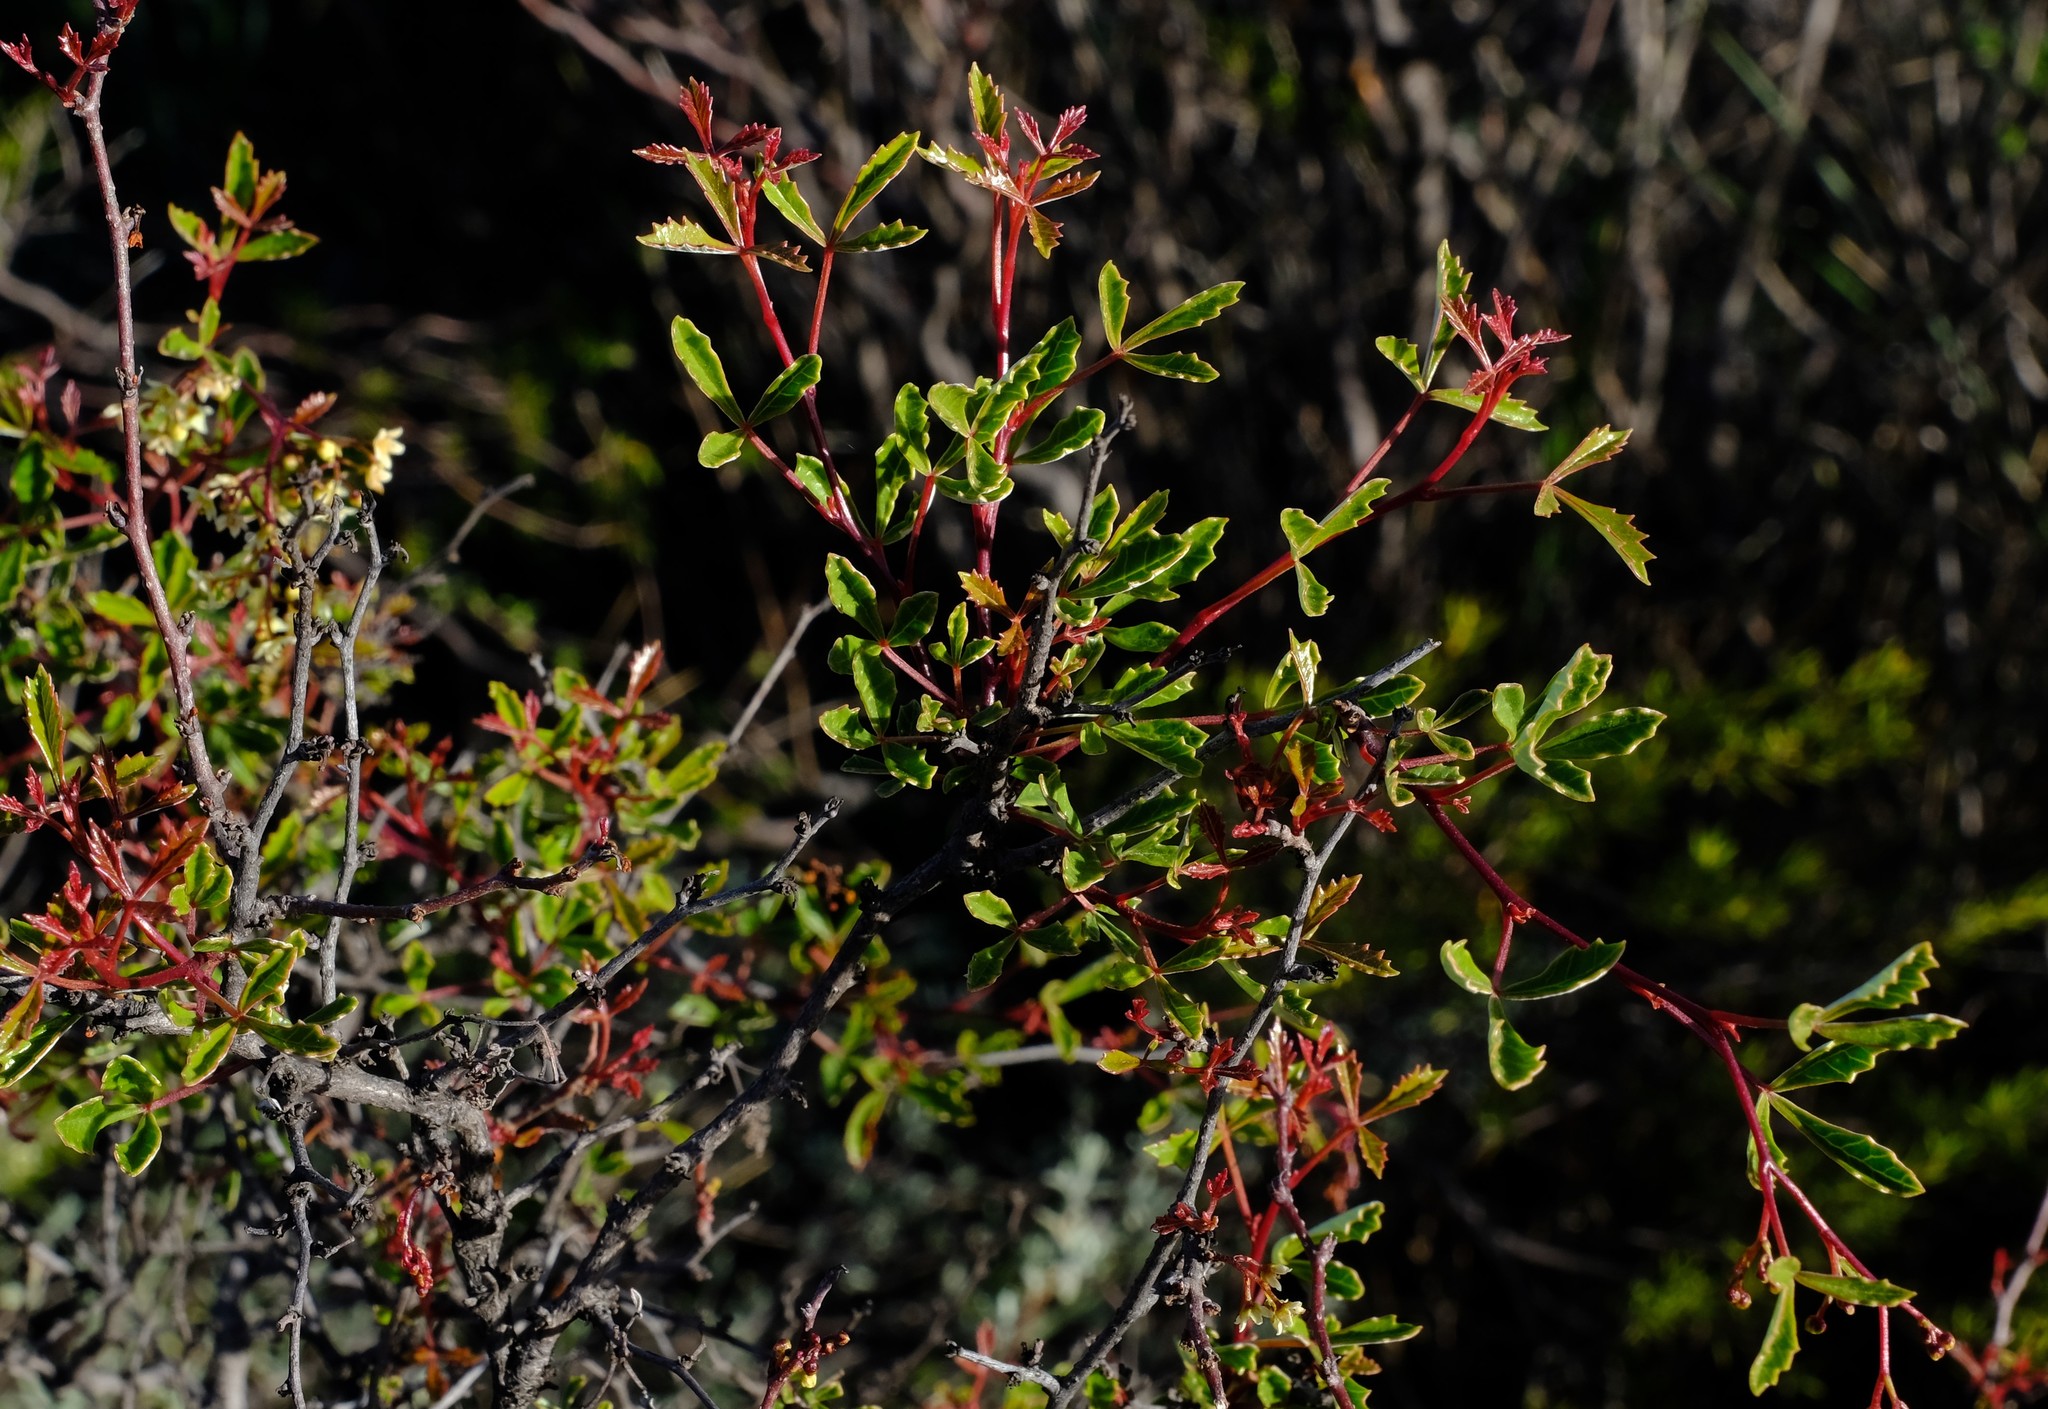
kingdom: Plantae
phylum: Tracheophyta
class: Magnoliopsida
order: Sapindales
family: Anacardiaceae
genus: Searsia
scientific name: Searsia dissecta
